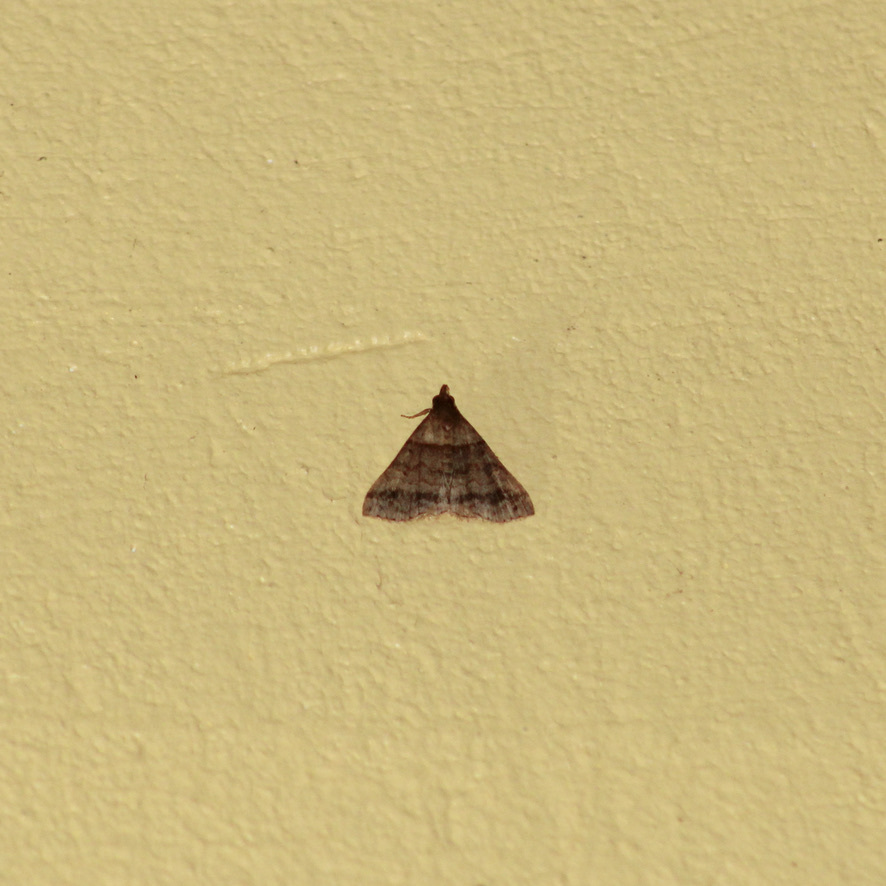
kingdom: Animalia
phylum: Arthropoda
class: Insecta
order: Lepidoptera
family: Erebidae
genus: Heterogramma
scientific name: Heterogramma circumflexalis
